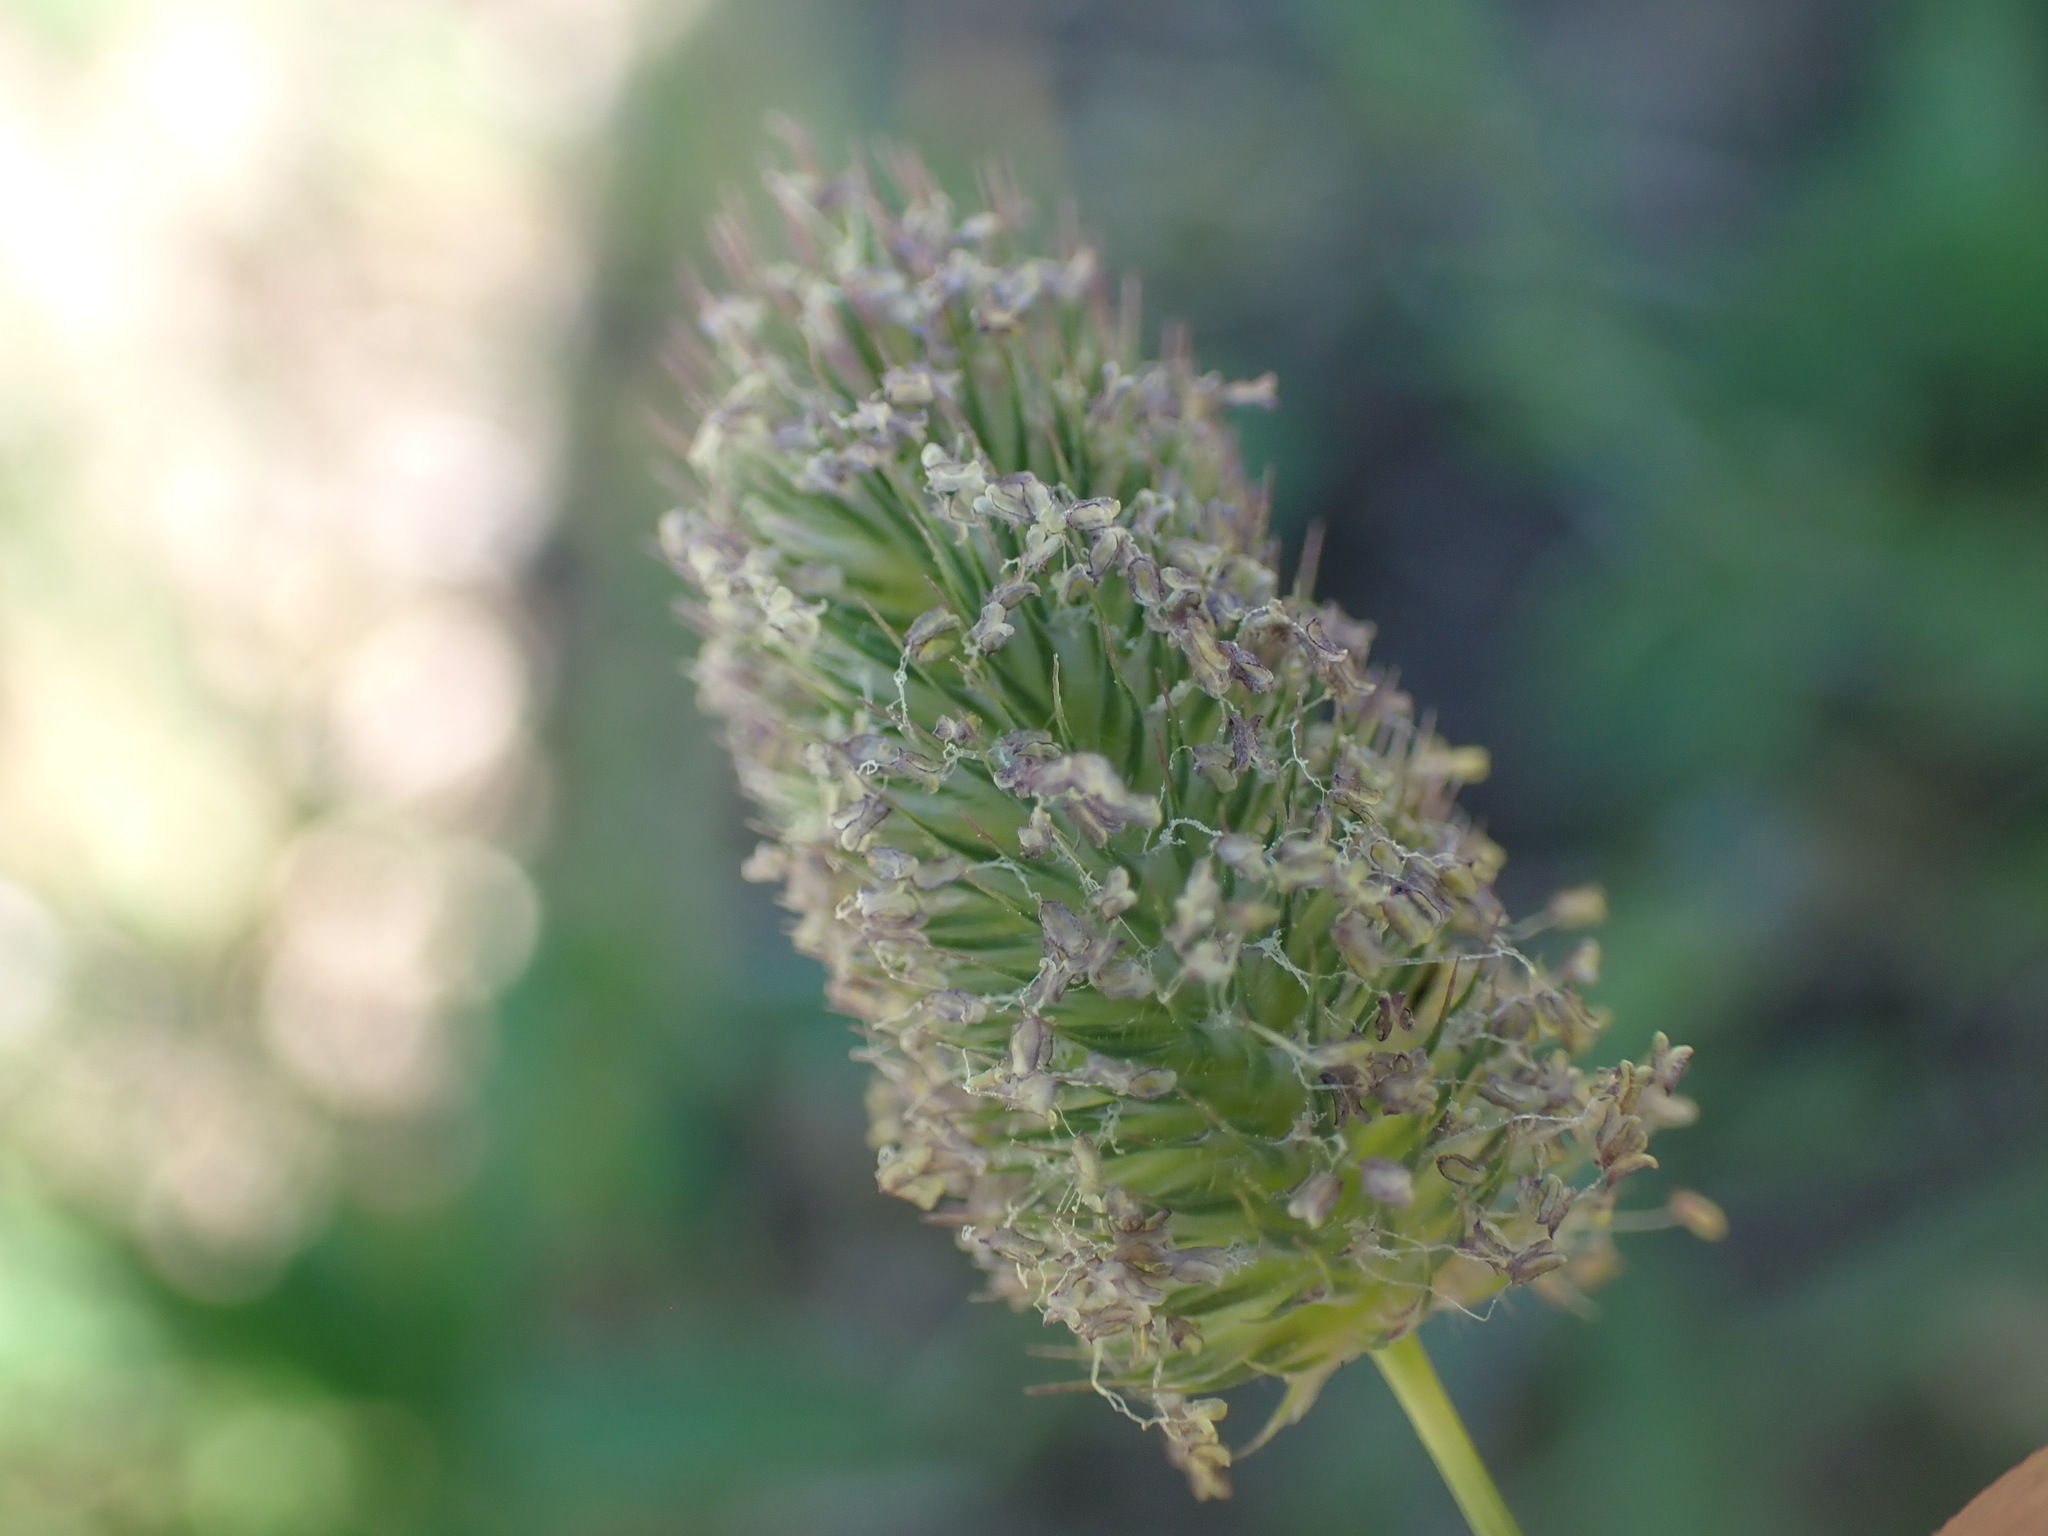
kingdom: Plantae
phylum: Tracheophyta
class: Liliopsida
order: Poales
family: Poaceae
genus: Phleum
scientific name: Phleum alpinum
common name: Alpine cat's-tail
